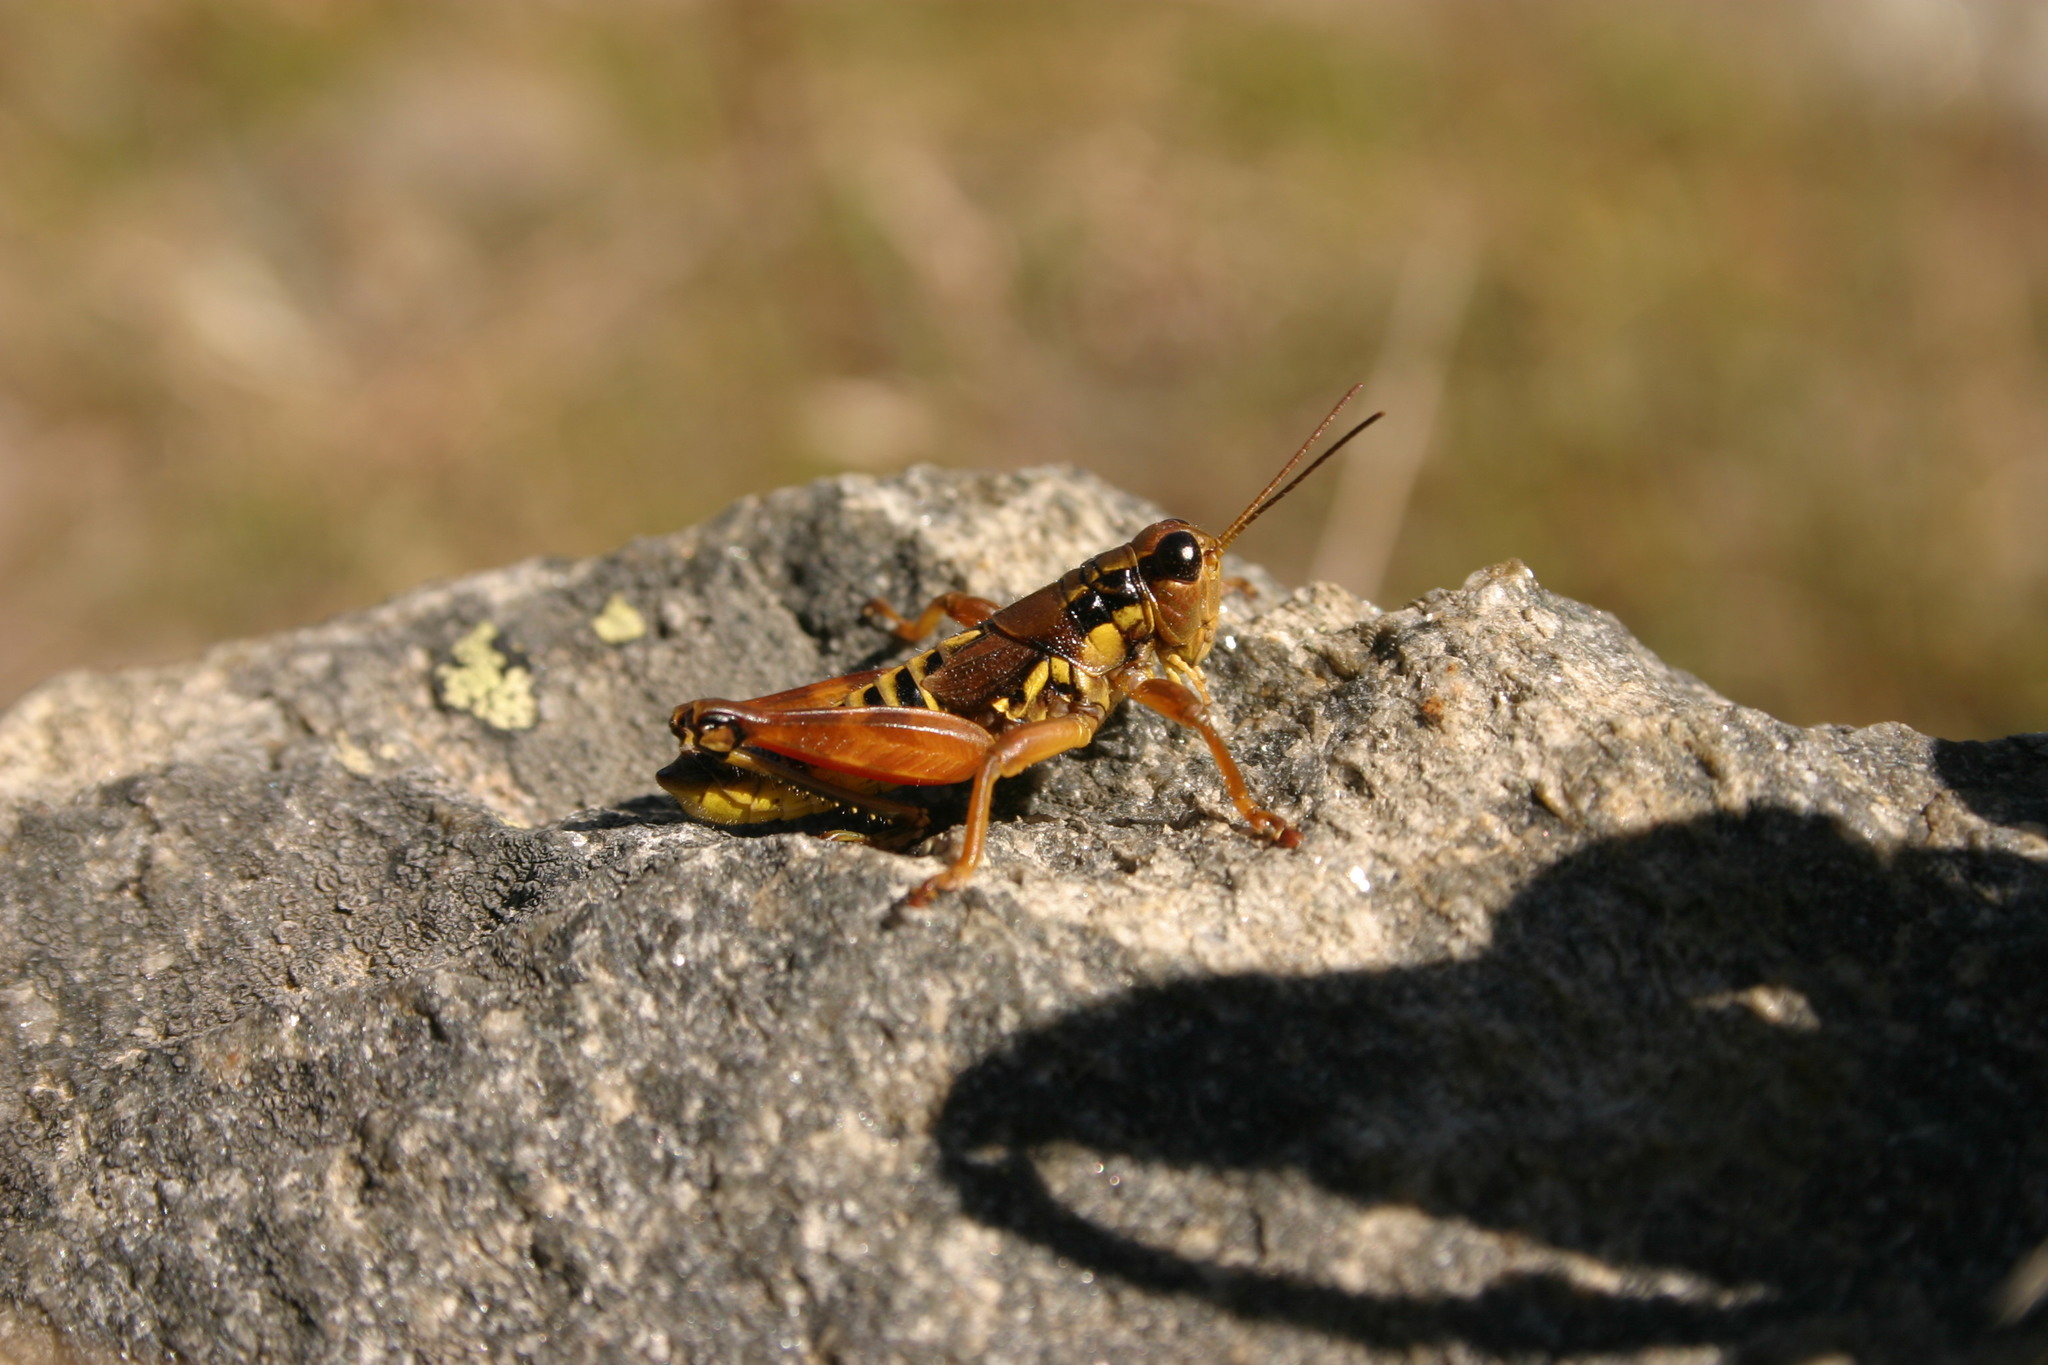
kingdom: Animalia
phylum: Arthropoda
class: Insecta
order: Orthoptera
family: Acrididae
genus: Podisma
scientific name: Podisma pedestris
